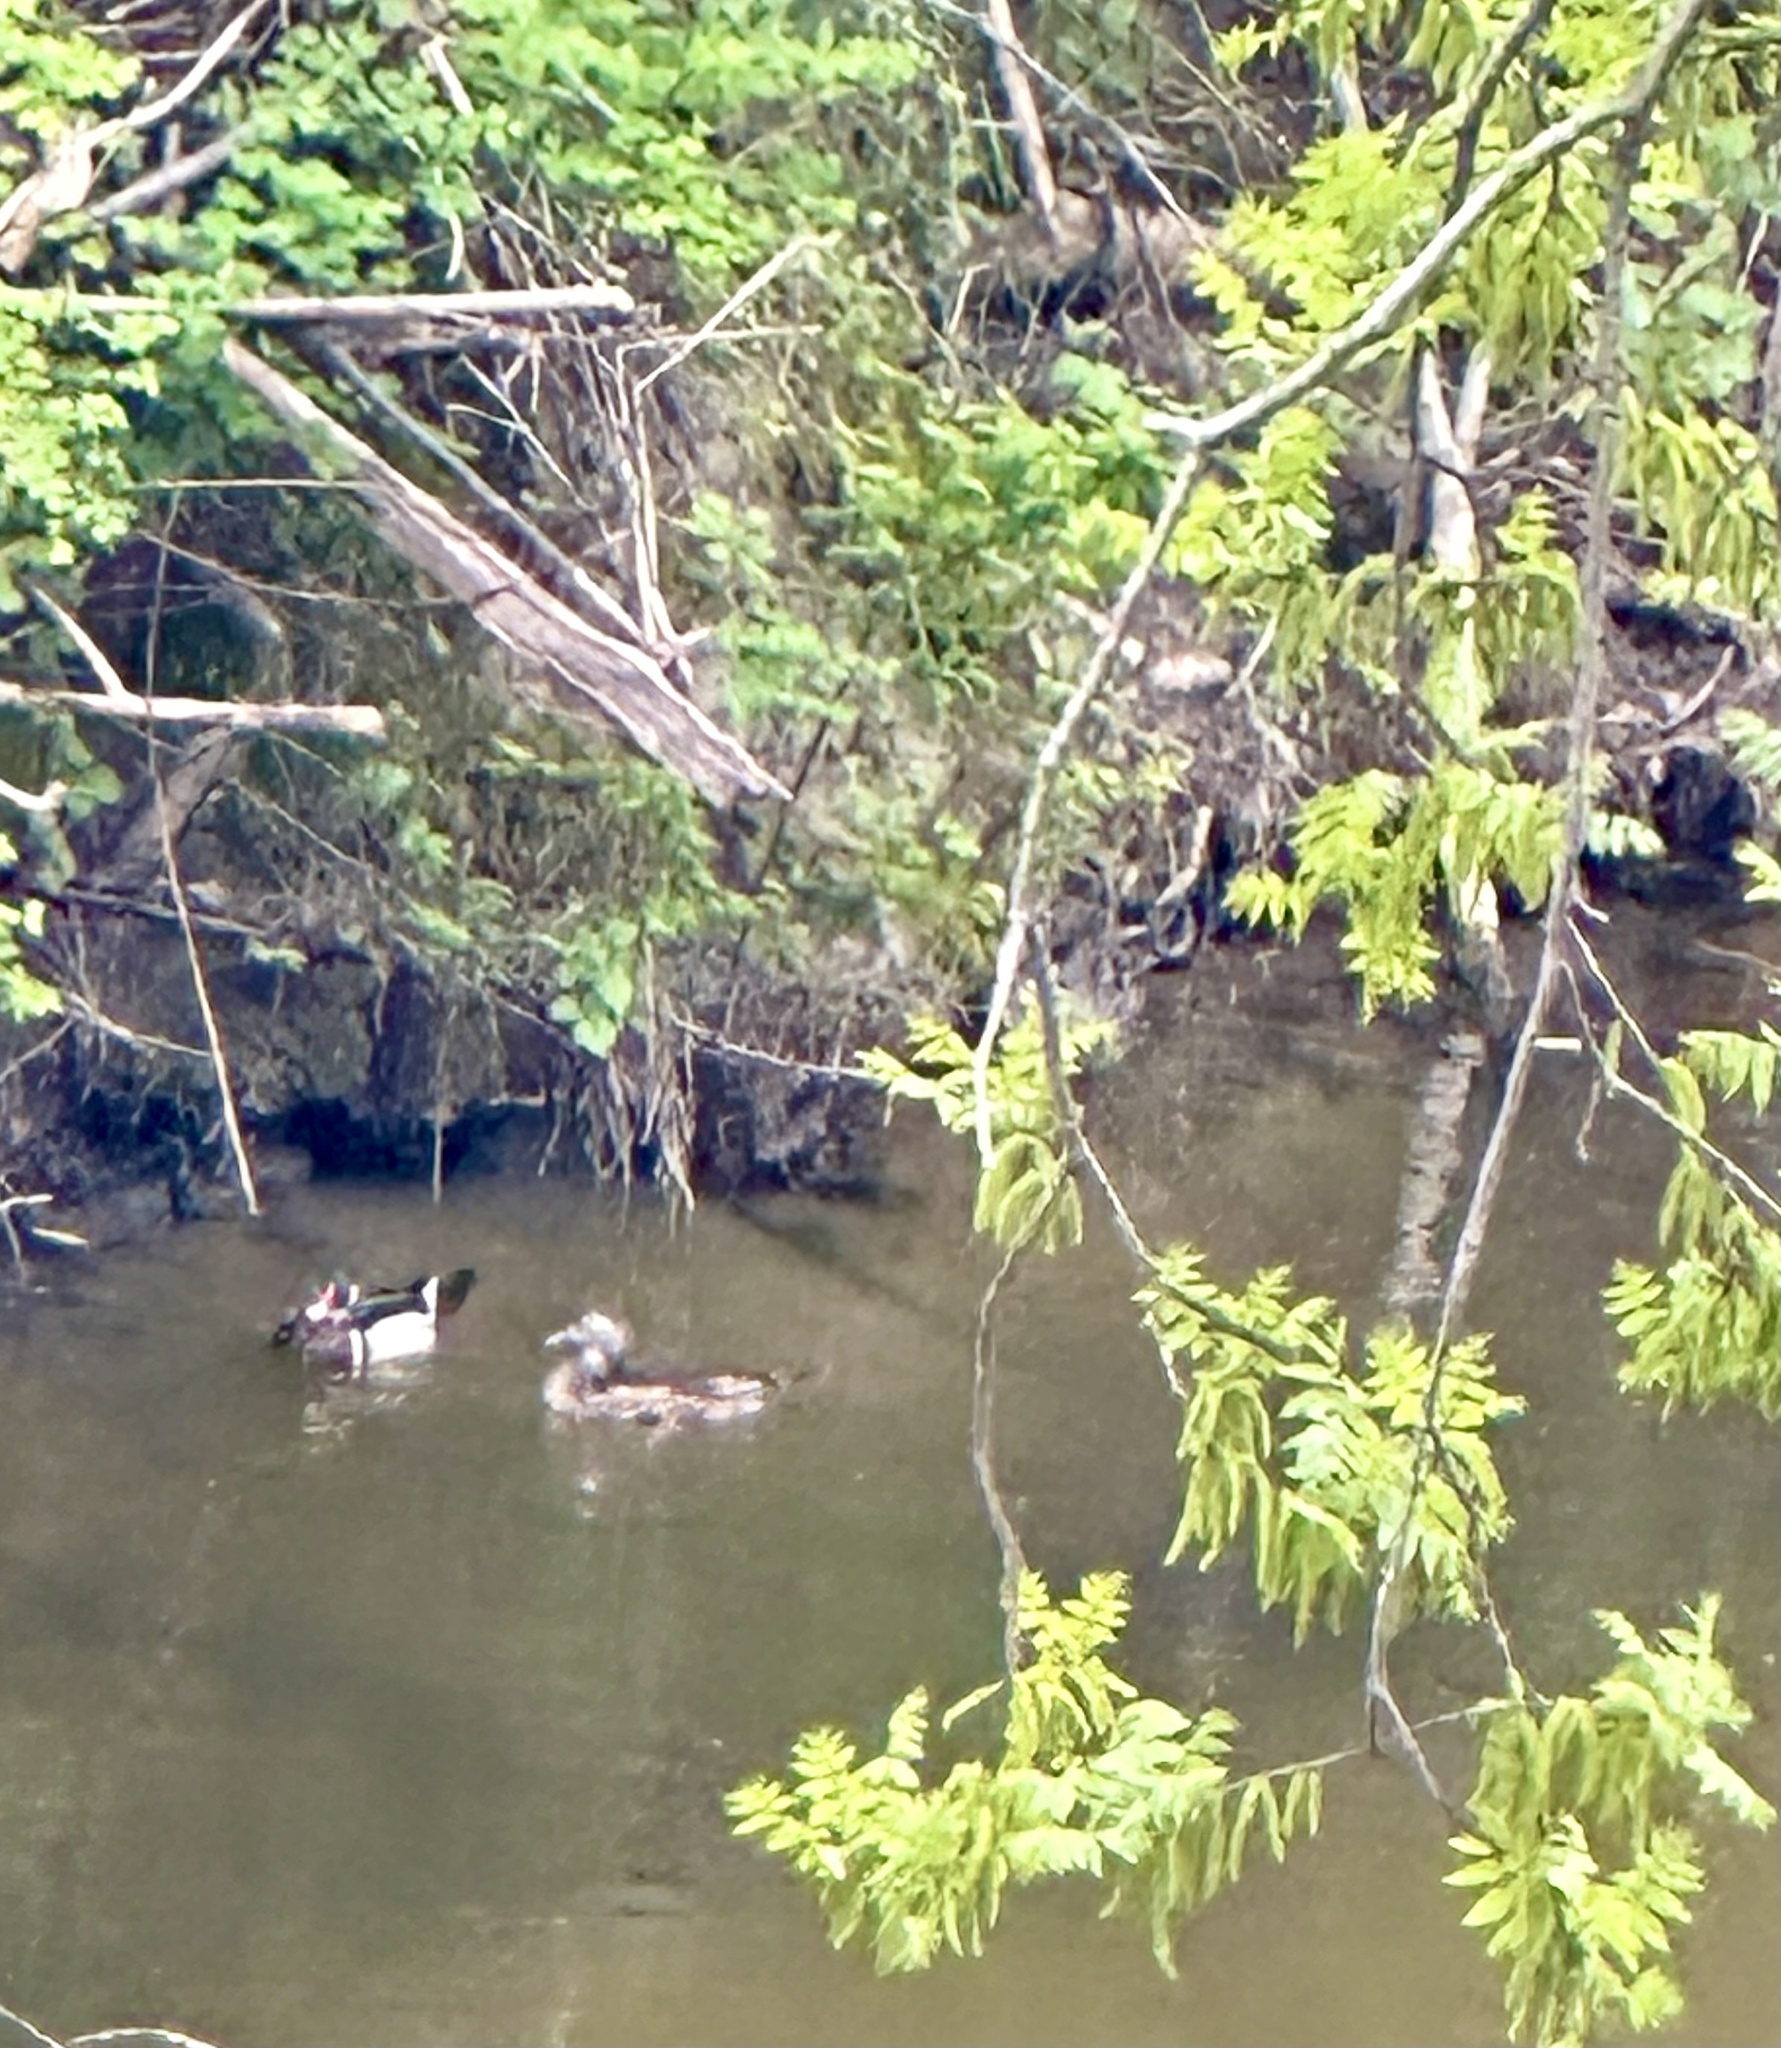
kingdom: Animalia
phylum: Chordata
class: Aves
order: Anseriformes
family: Anatidae
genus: Aix
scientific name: Aix sponsa
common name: Wood duck
